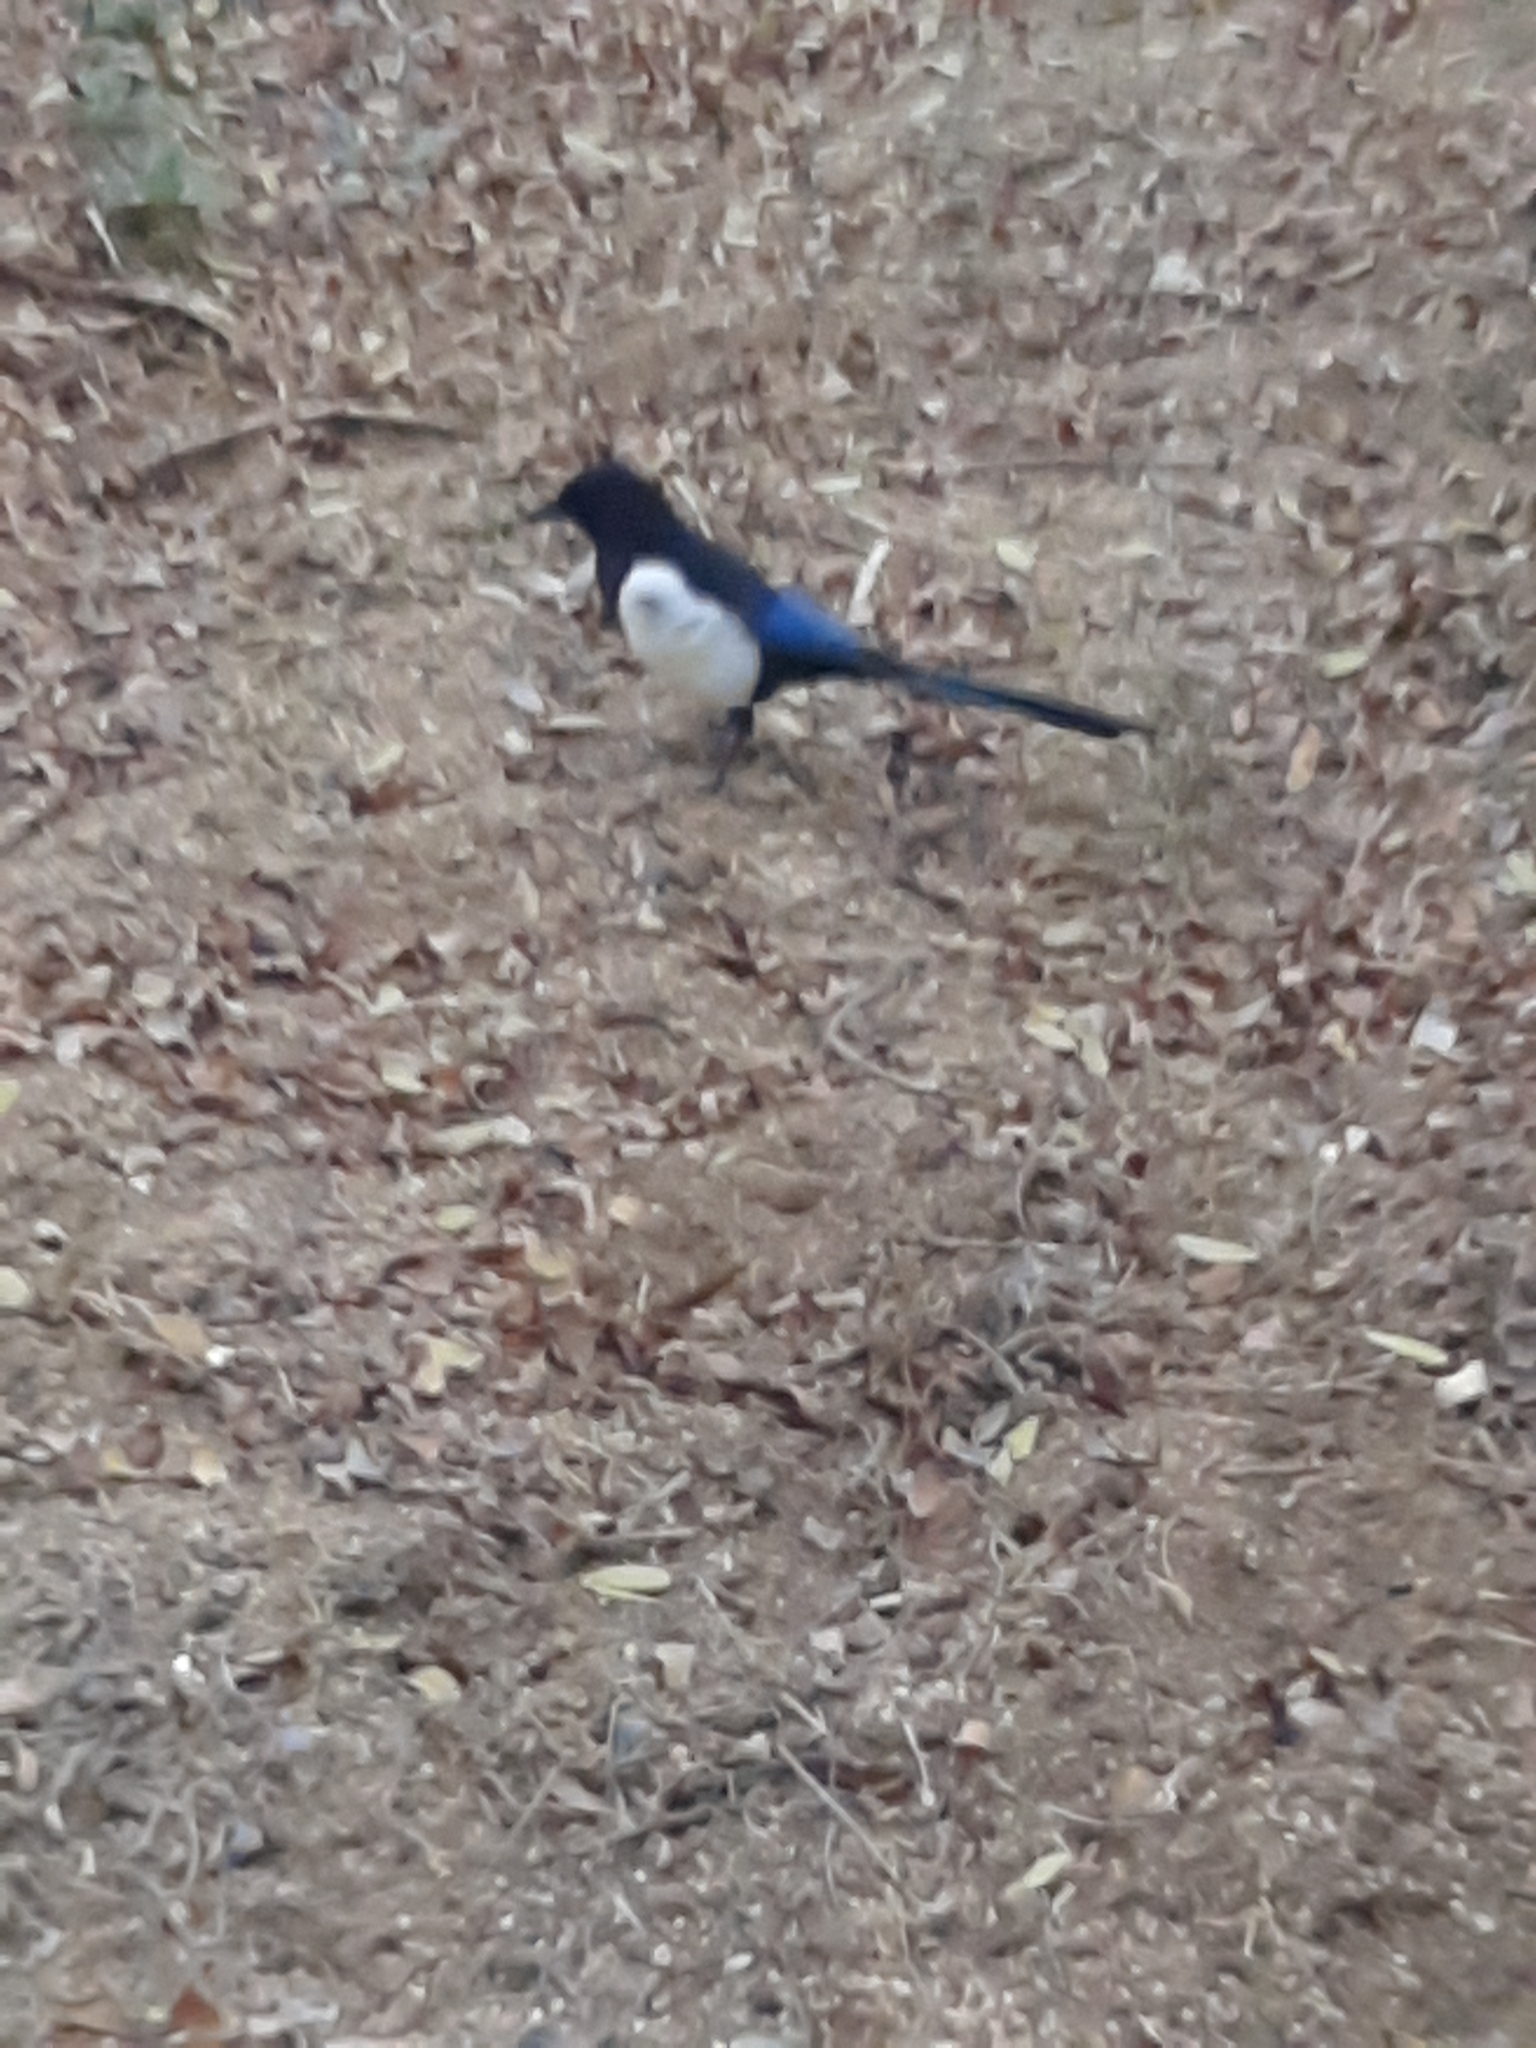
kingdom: Animalia
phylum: Chordata
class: Aves
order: Passeriformes
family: Corvidae
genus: Pica
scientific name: Pica pica
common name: Eurasian magpie
